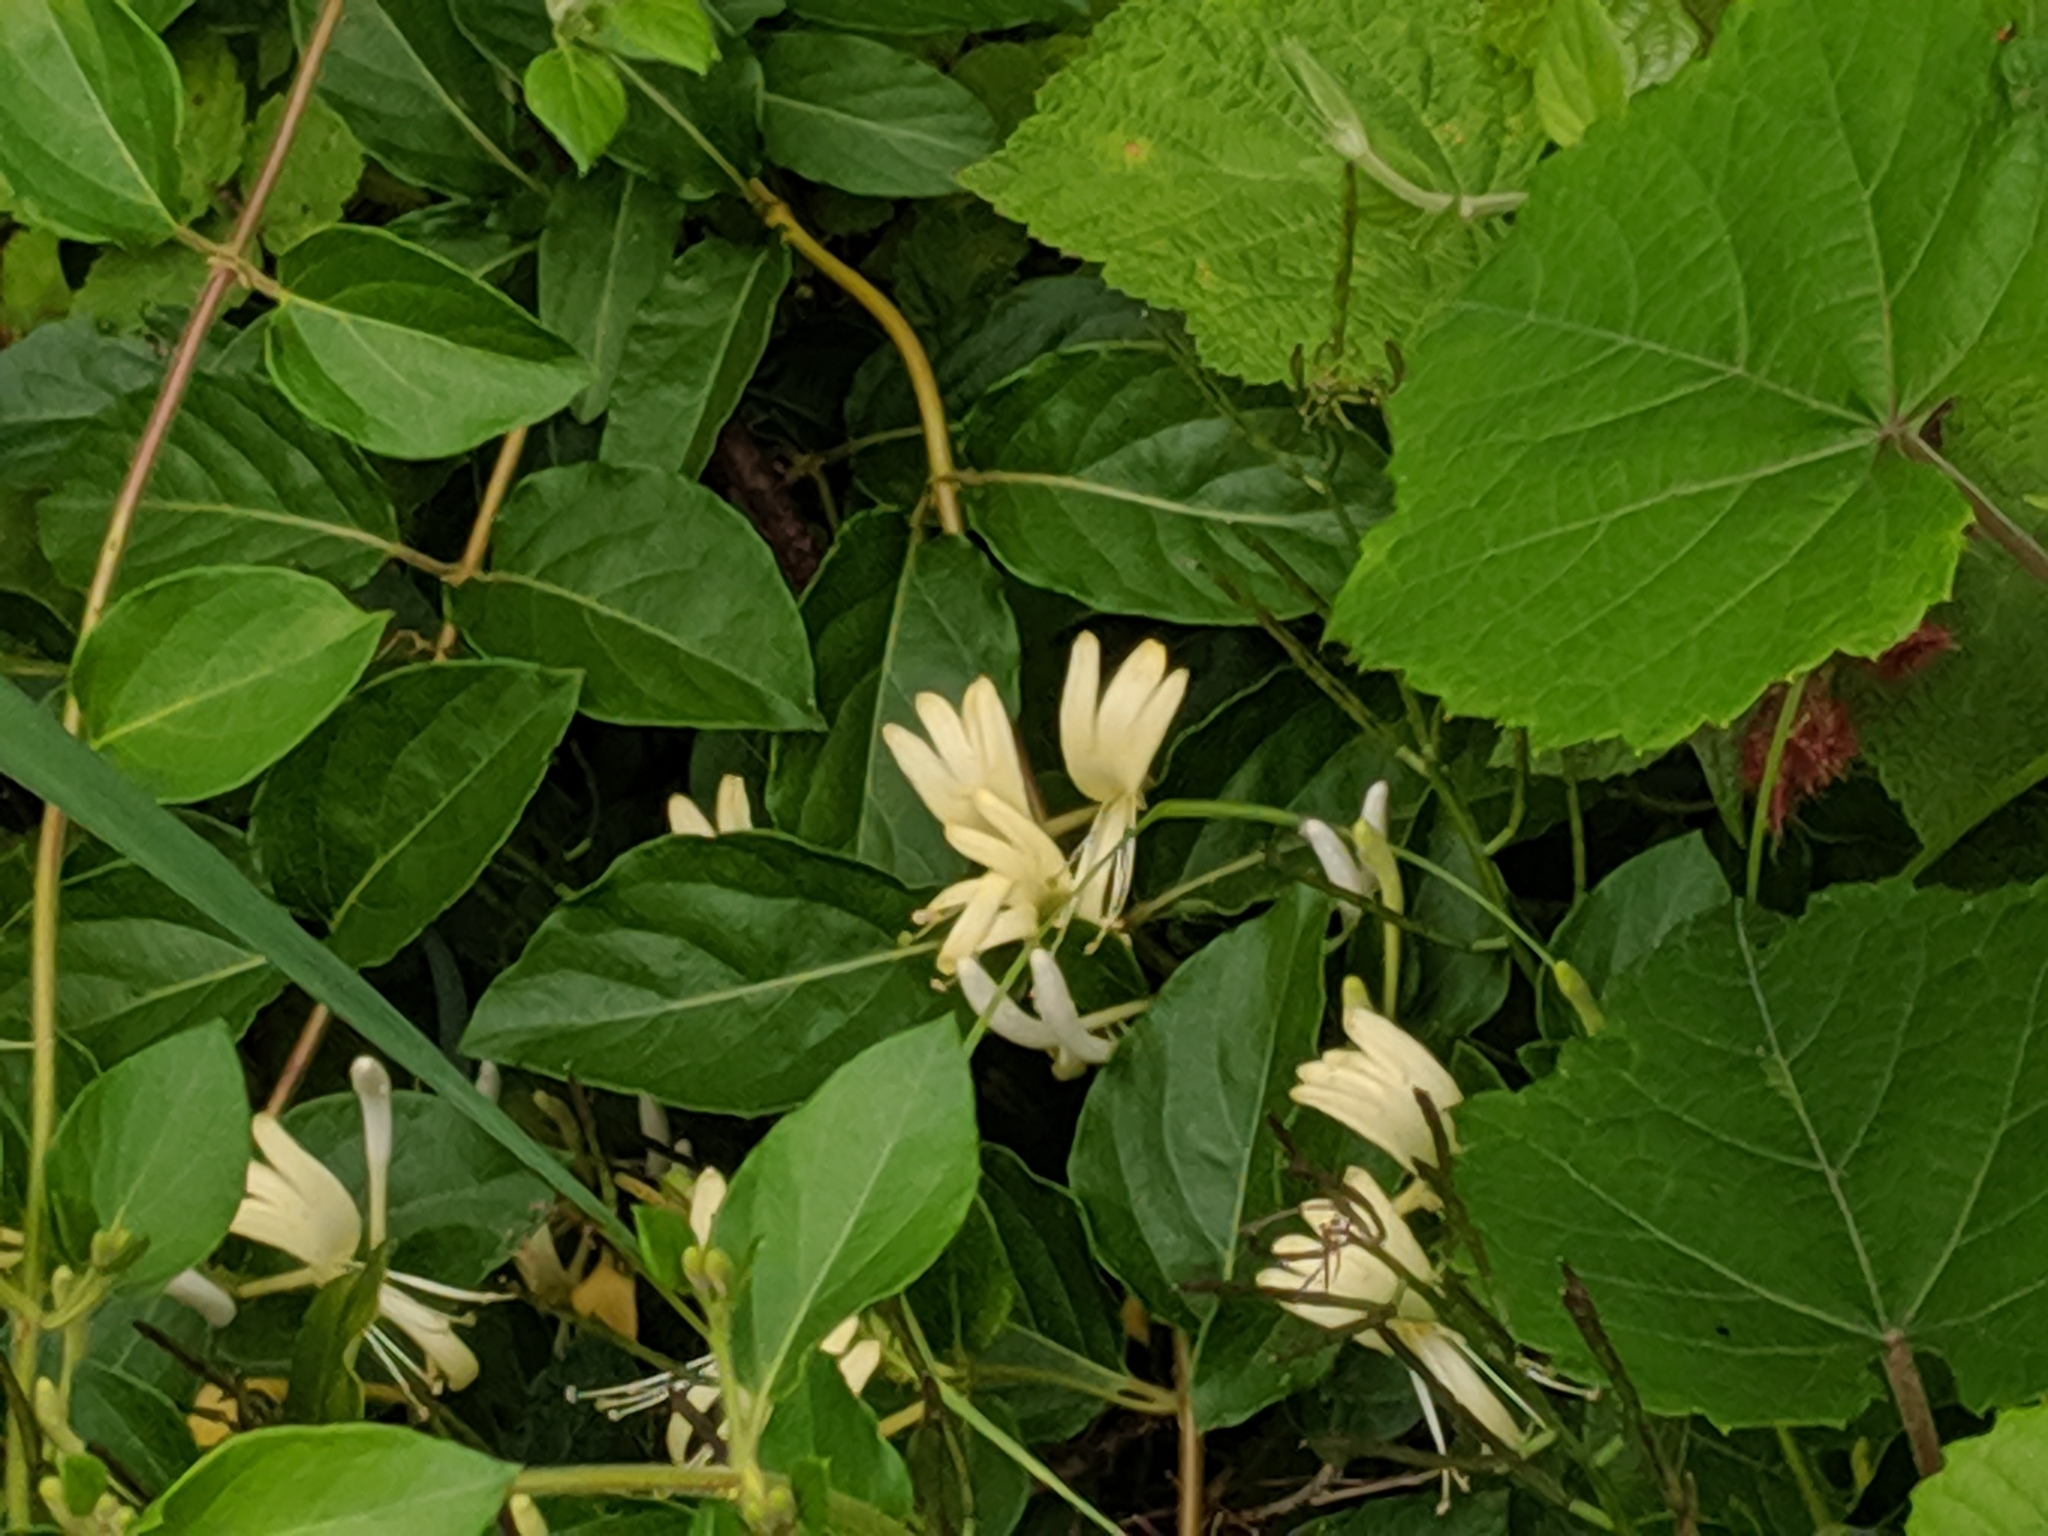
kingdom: Plantae
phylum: Tracheophyta
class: Magnoliopsida
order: Dipsacales
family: Caprifoliaceae
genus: Lonicera
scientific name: Lonicera japonica
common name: Japanese honeysuckle
